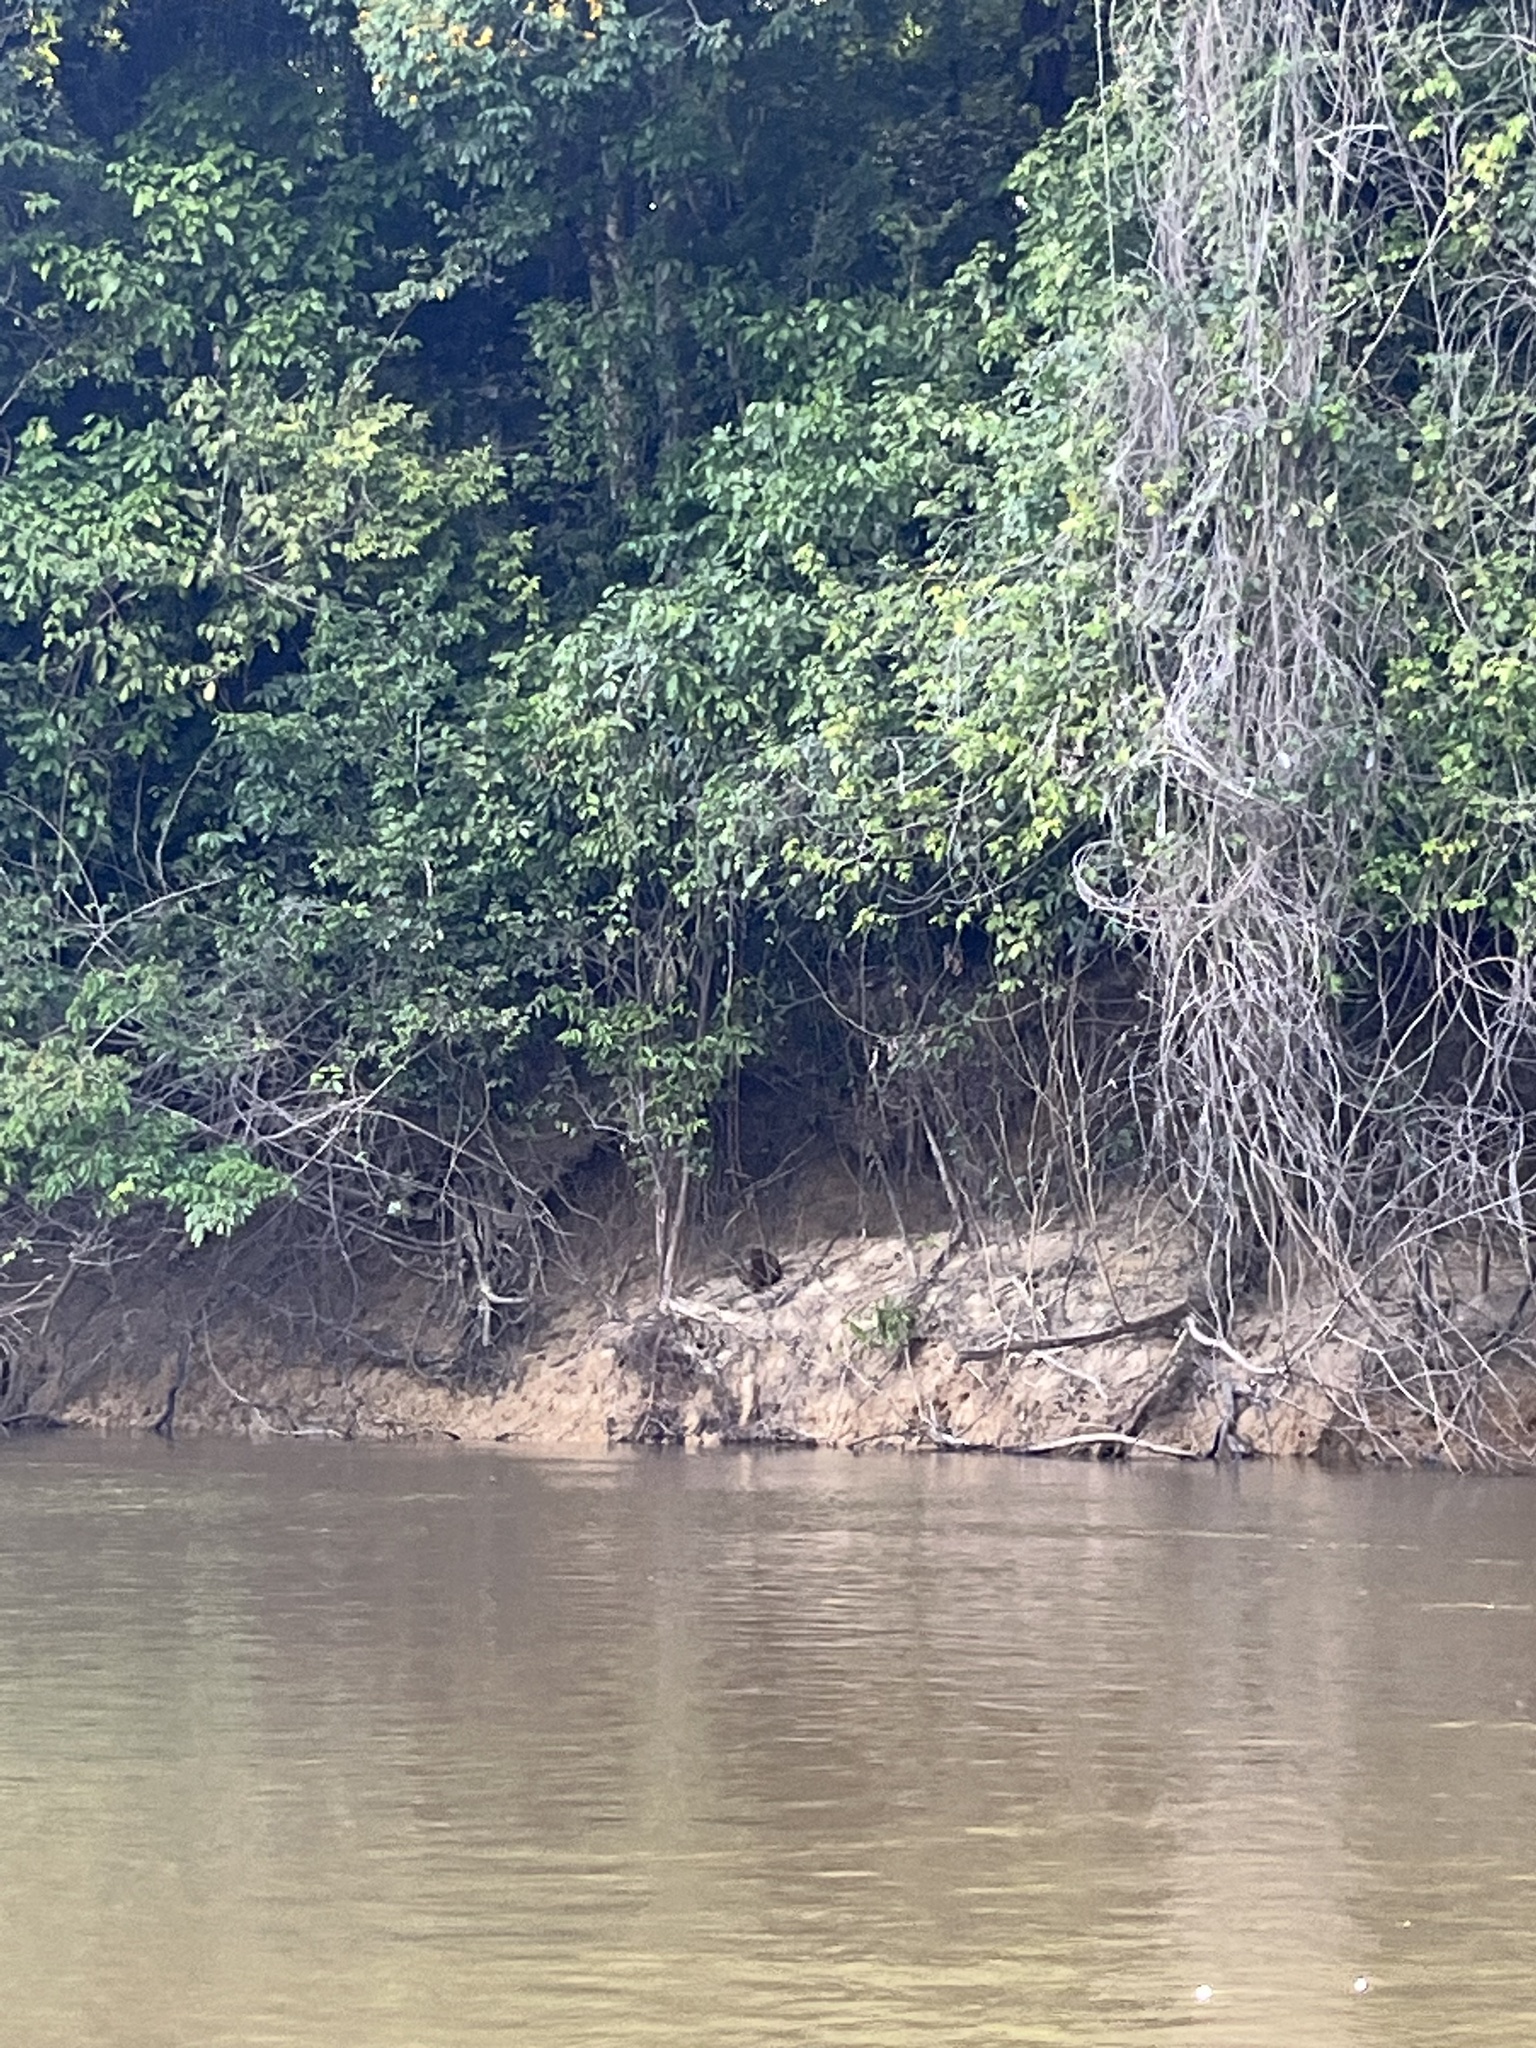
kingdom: Animalia
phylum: Chordata
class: Mammalia
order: Rodentia
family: Caviidae
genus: Hydrochoerus
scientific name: Hydrochoerus hydrochaeris
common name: Capybara
